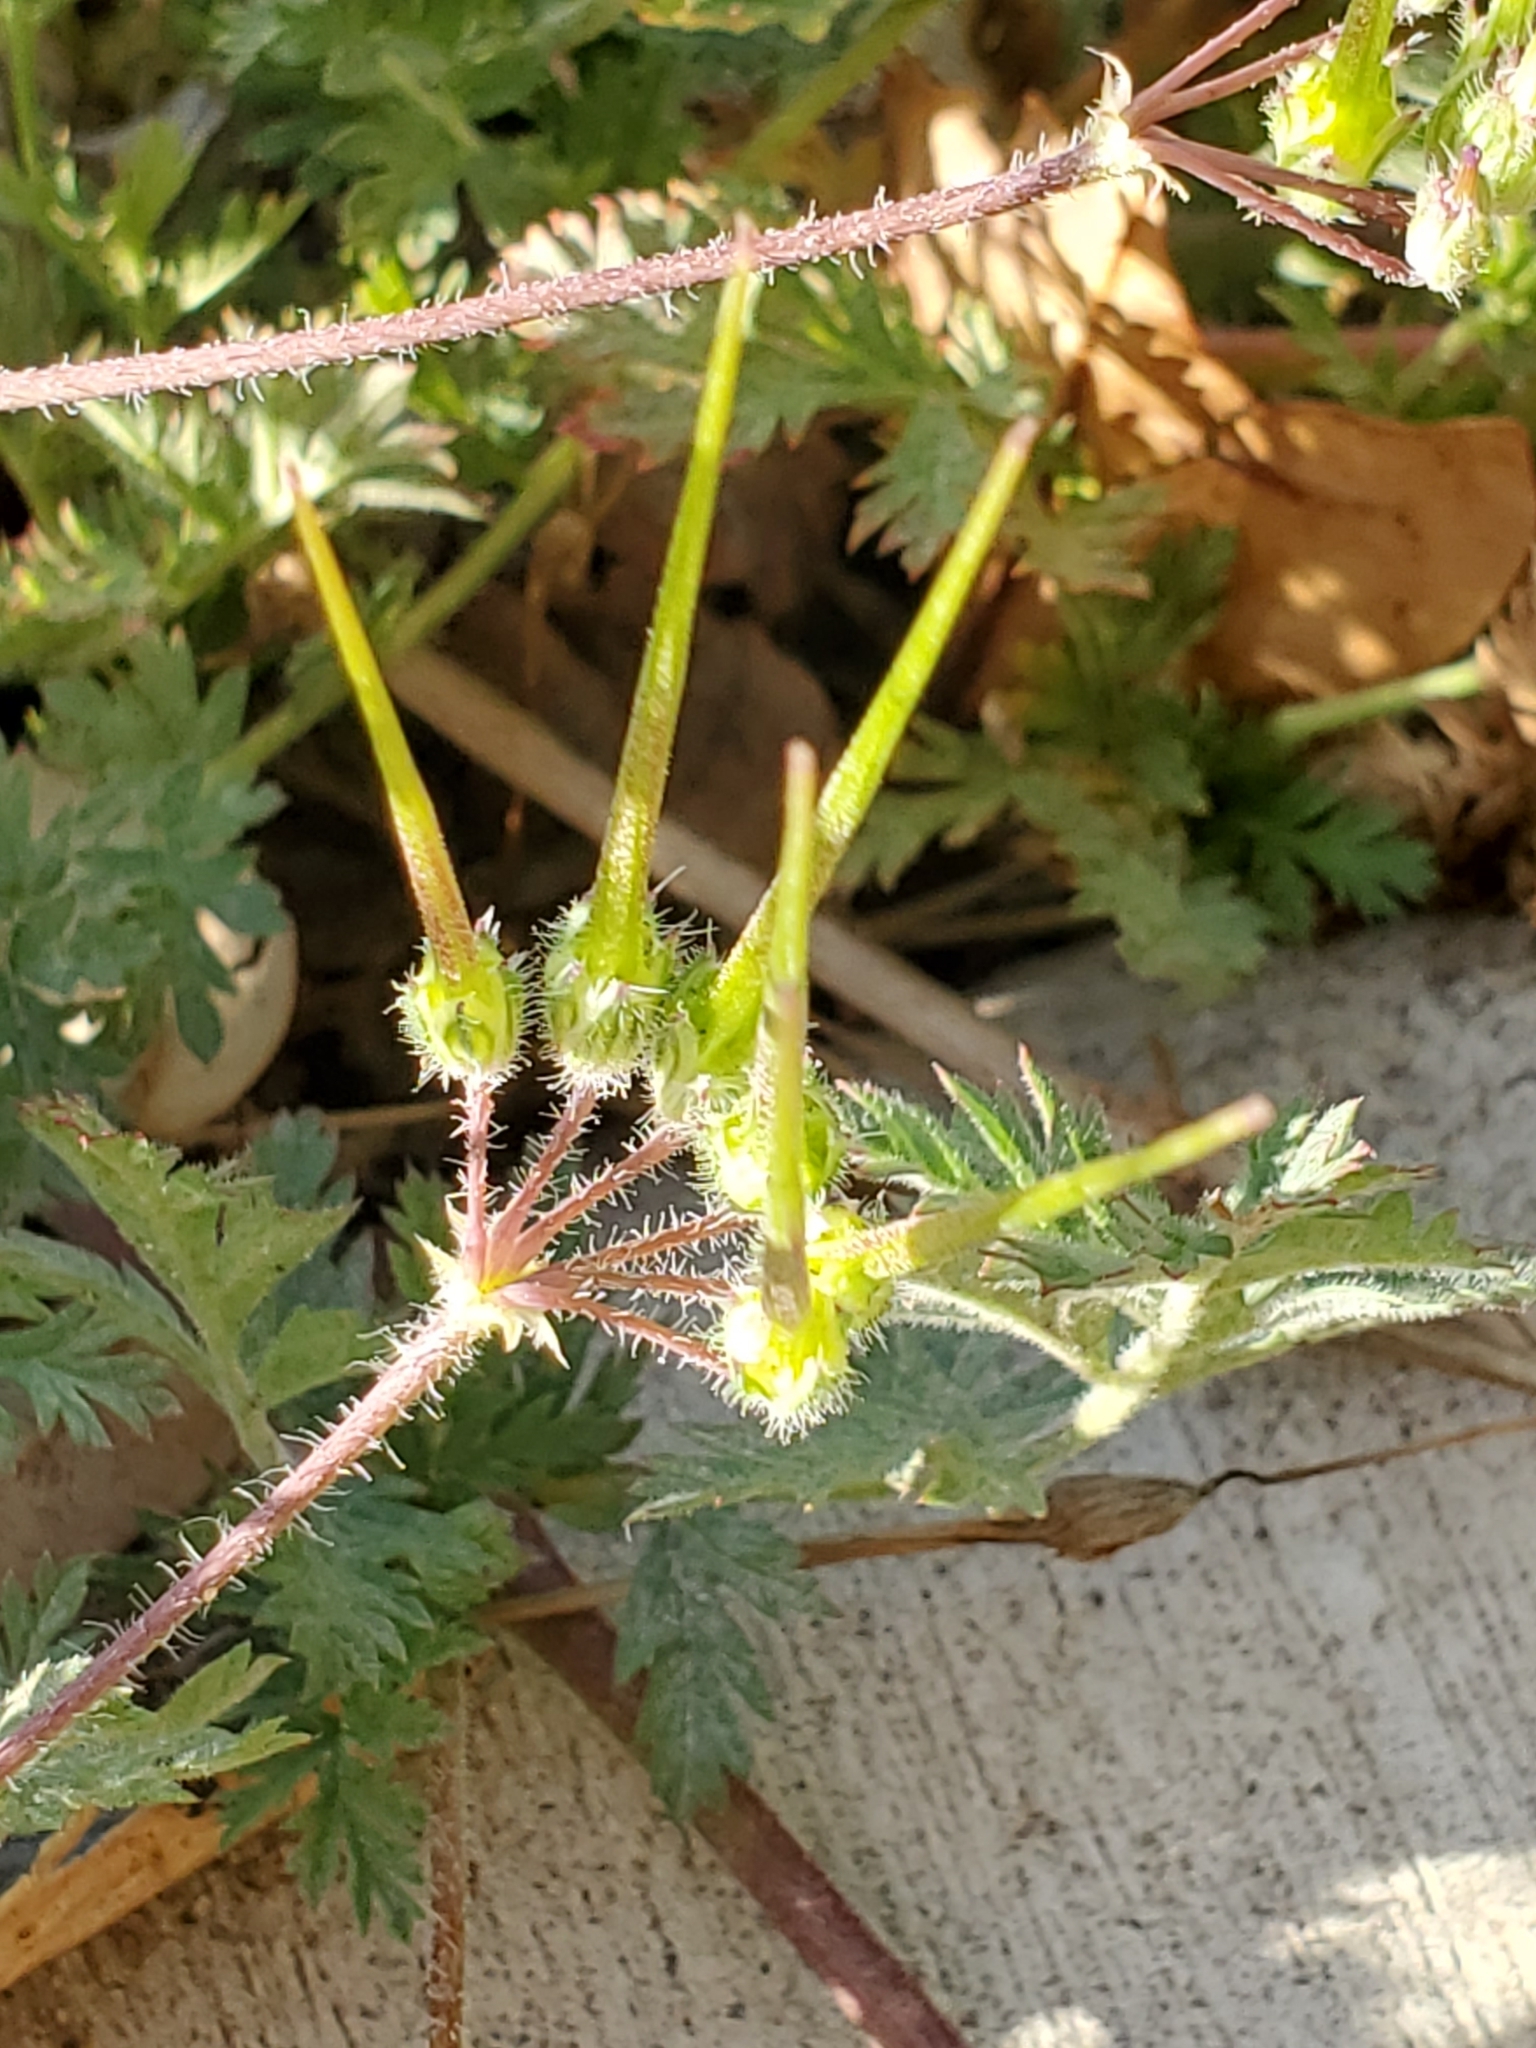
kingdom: Plantae
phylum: Tracheophyta
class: Magnoliopsida
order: Geraniales
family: Geraniaceae
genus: Erodium
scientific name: Erodium cicutarium
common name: Common stork's-bill
